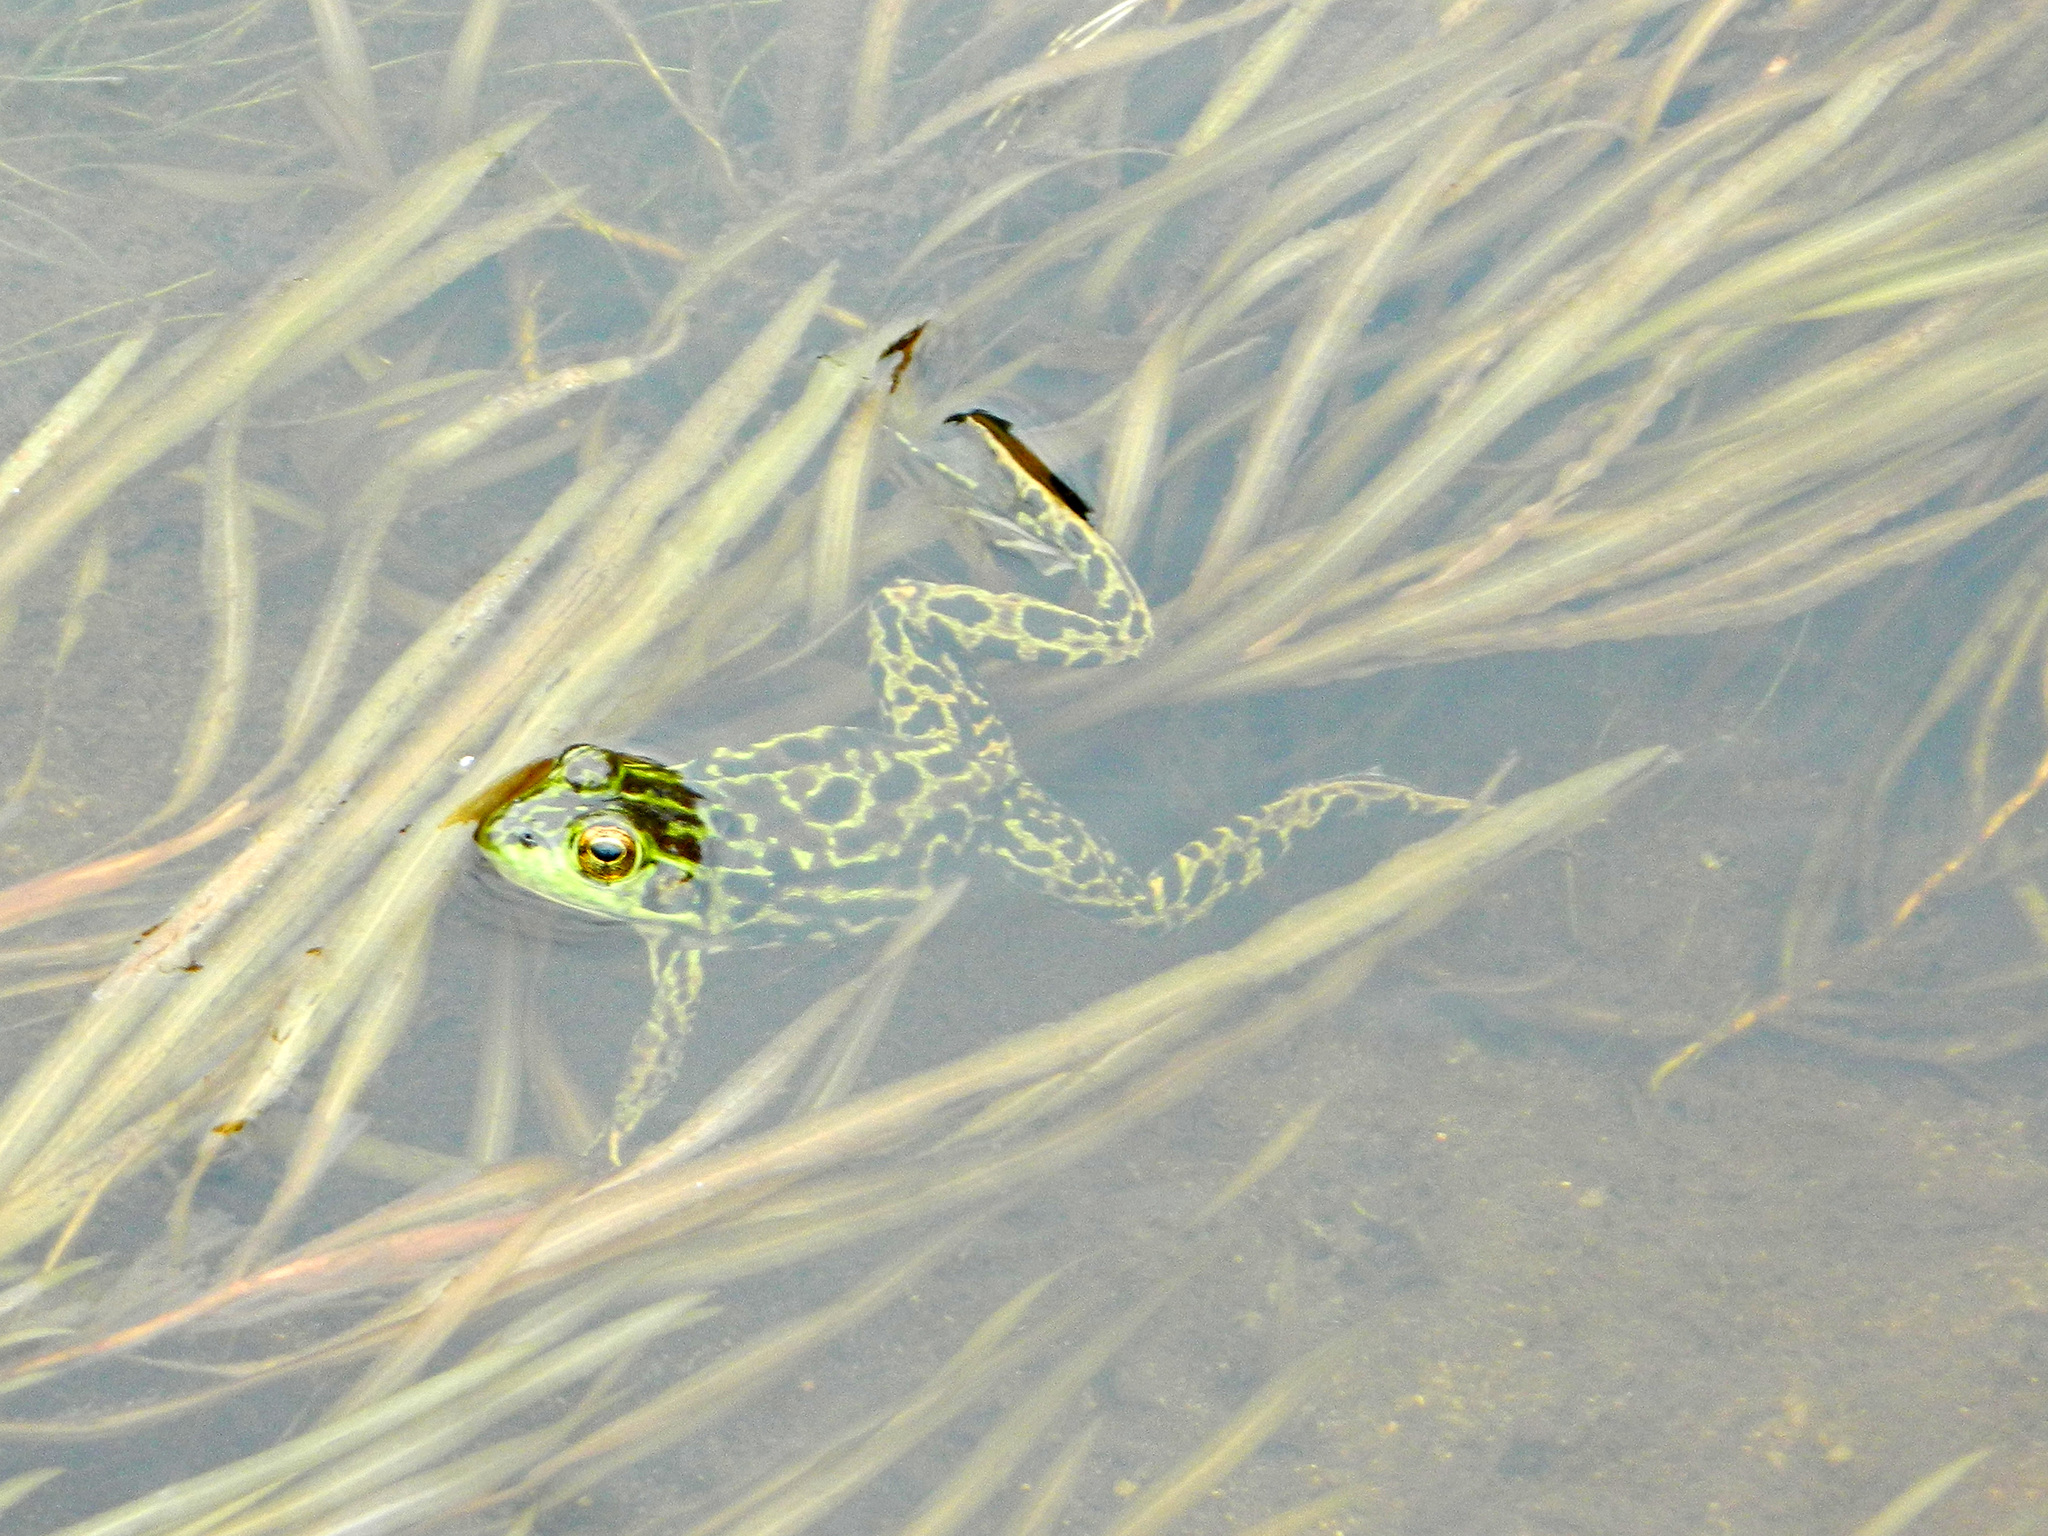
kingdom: Animalia
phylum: Chordata
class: Amphibia
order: Anura
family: Ranidae
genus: Lithobates
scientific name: Lithobates septentrionalis
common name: Mink frog
